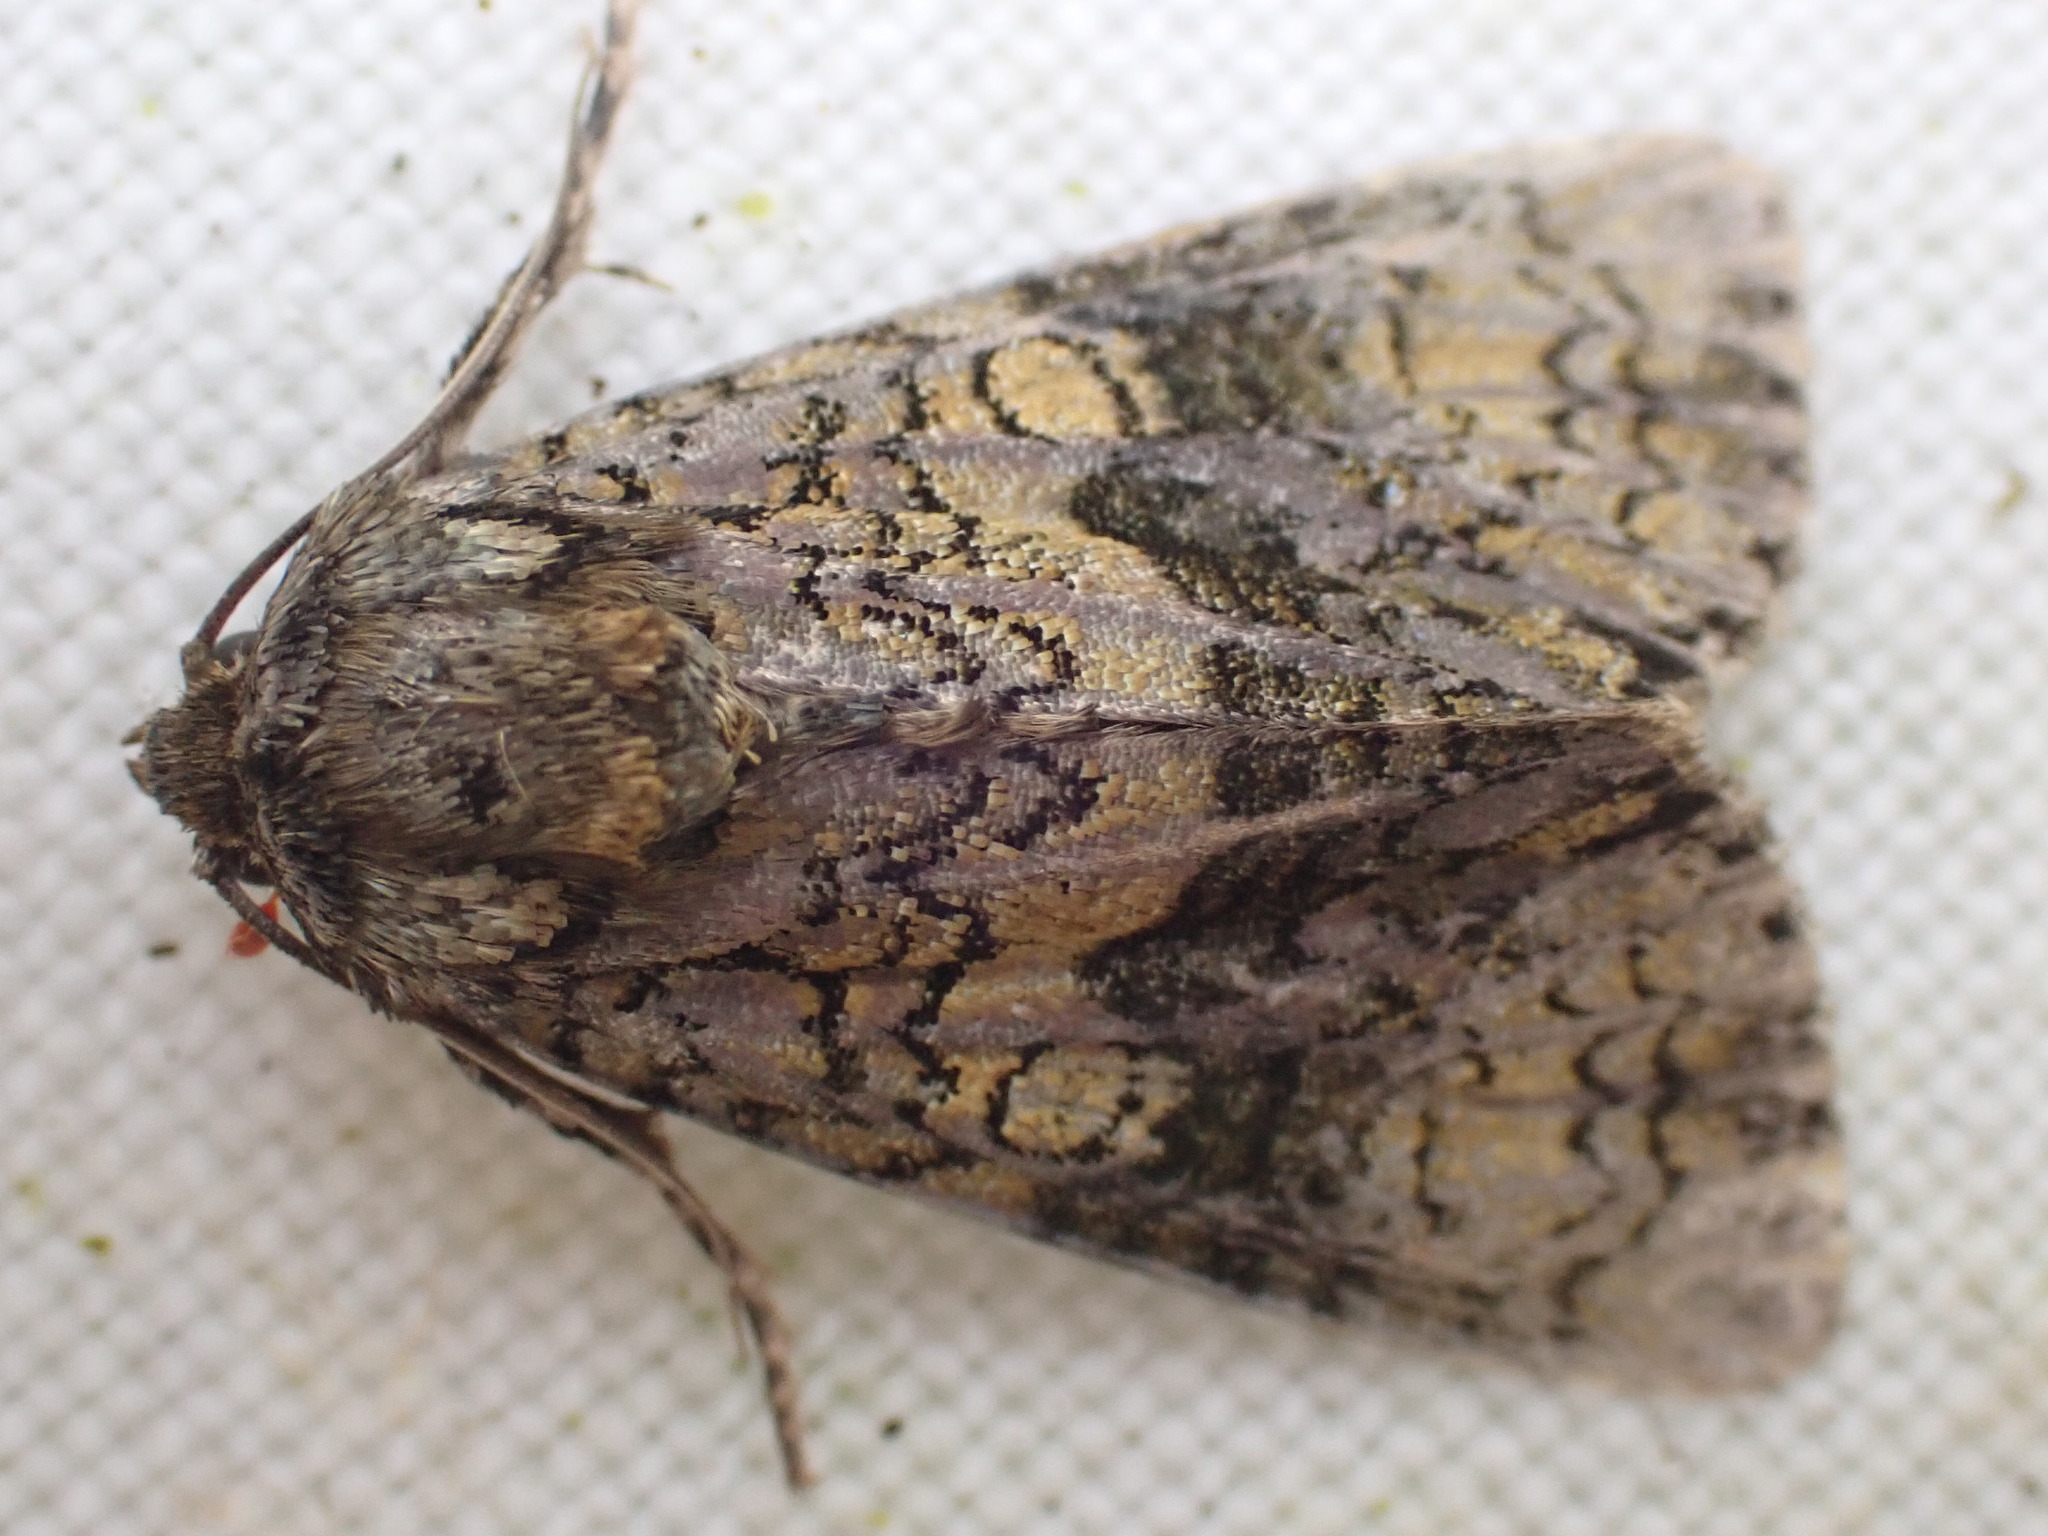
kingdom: Animalia
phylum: Arthropoda
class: Insecta
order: Lepidoptera
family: Noctuidae
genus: Craniophora
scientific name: Craniophora ligustri
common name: Coronet
